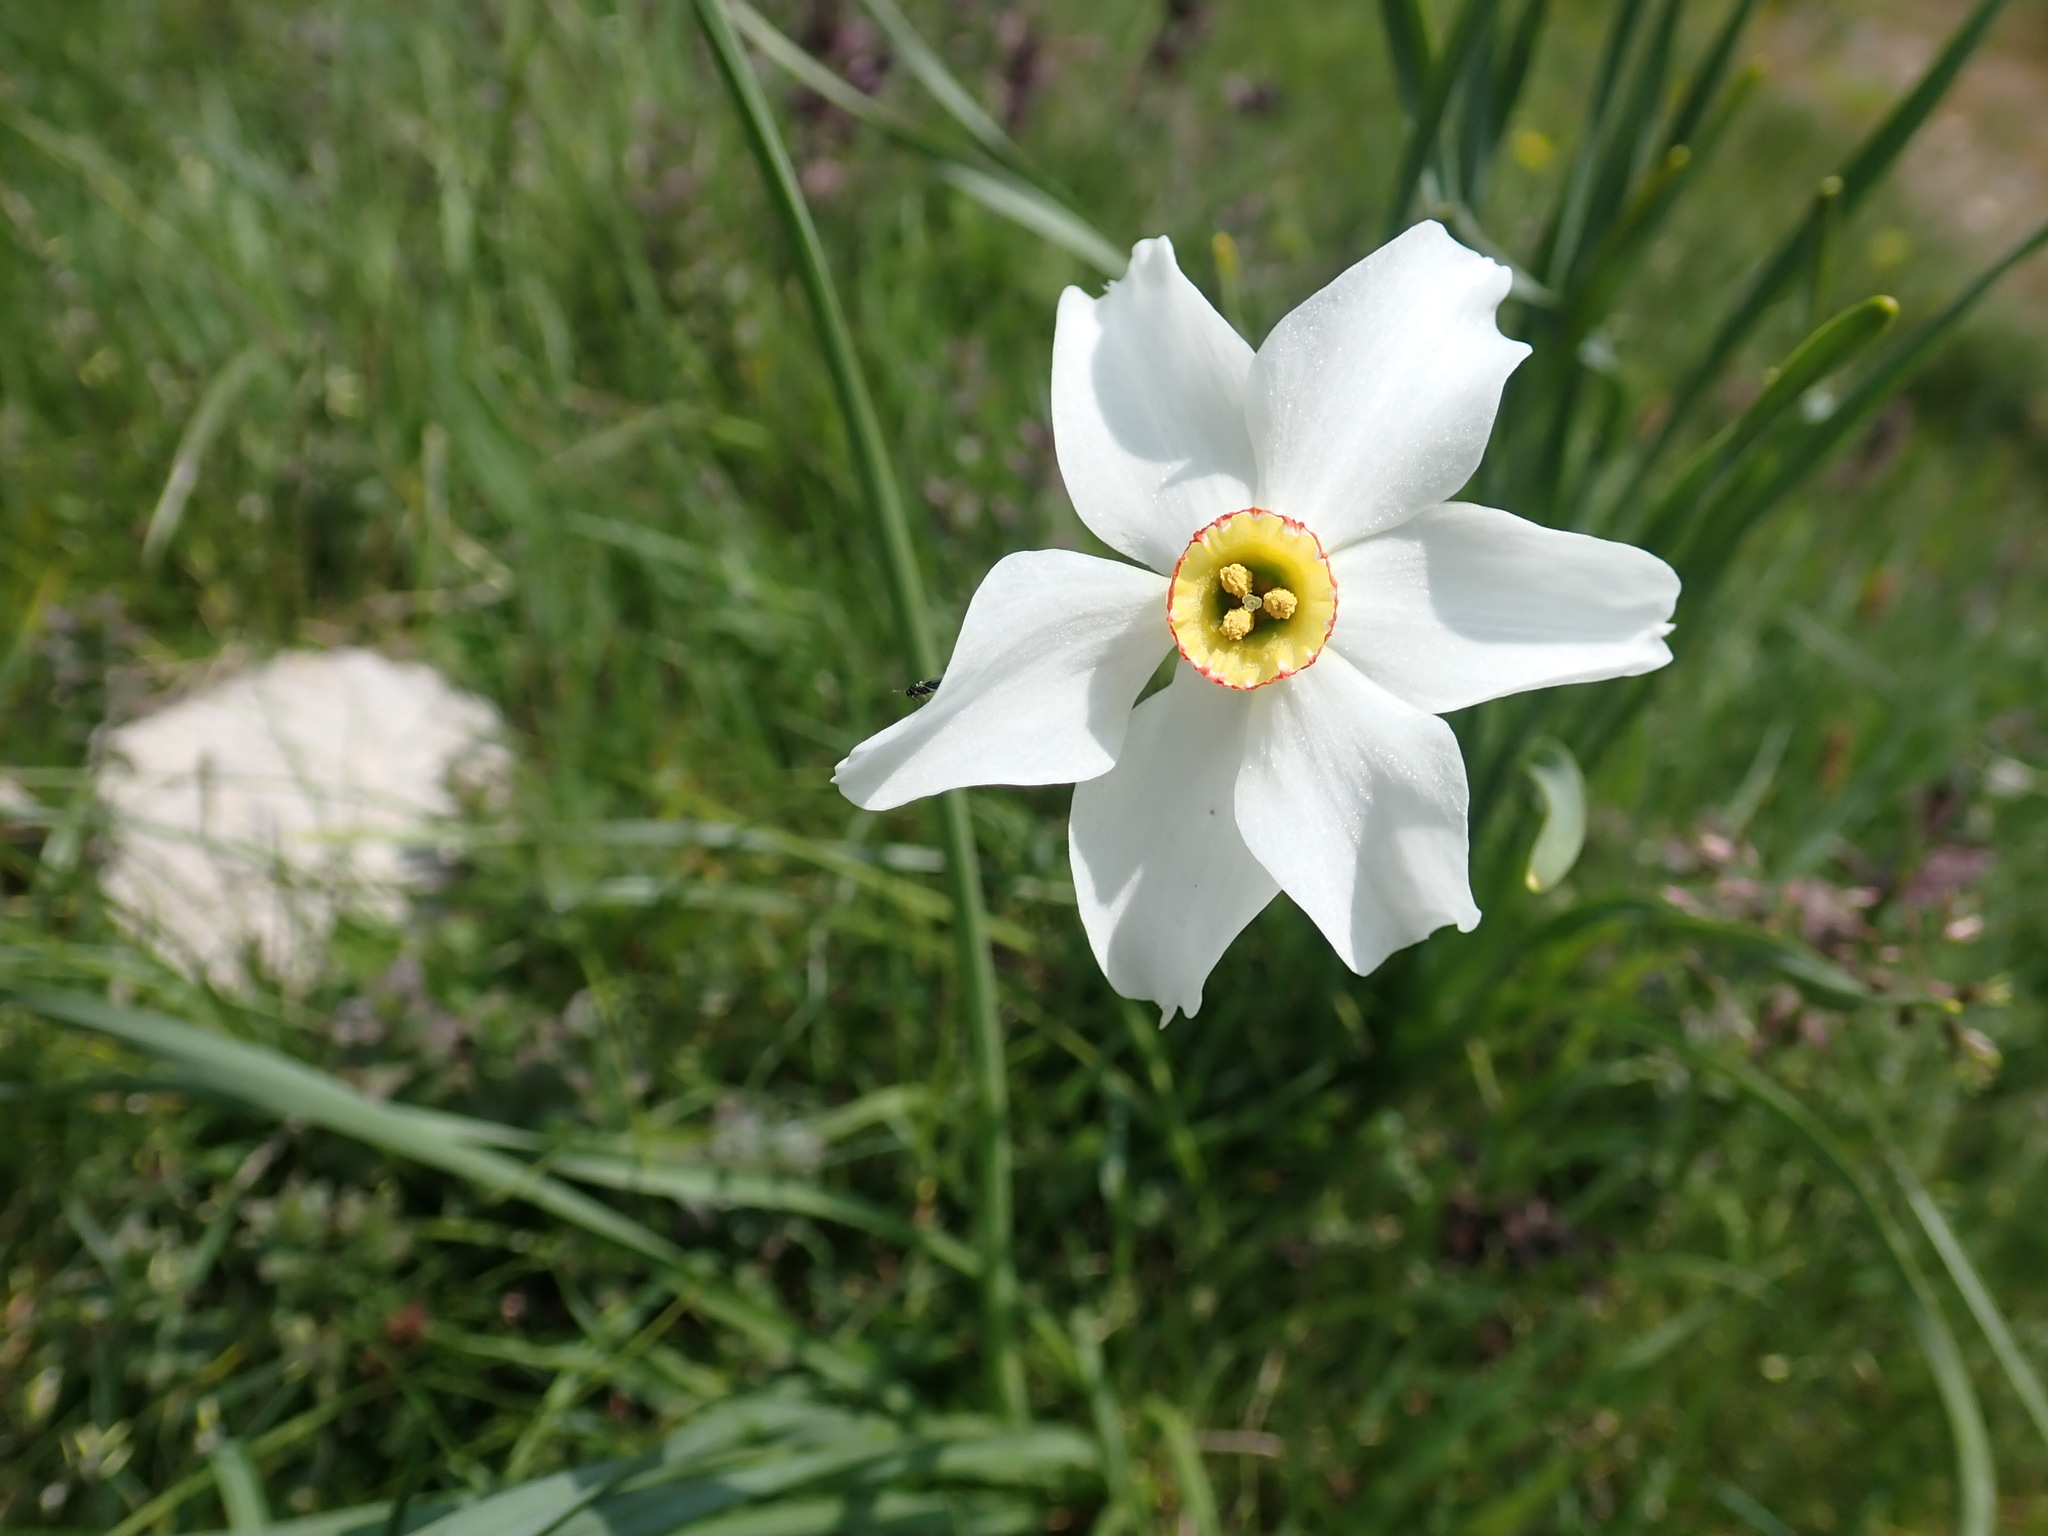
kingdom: Plantae
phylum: Tracheophyta
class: Liliopsida
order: Asparagales
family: Amaryllidaceae
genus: Narcissus
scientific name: Narcissus poeticus
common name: Pheasant's-eye daffodil
